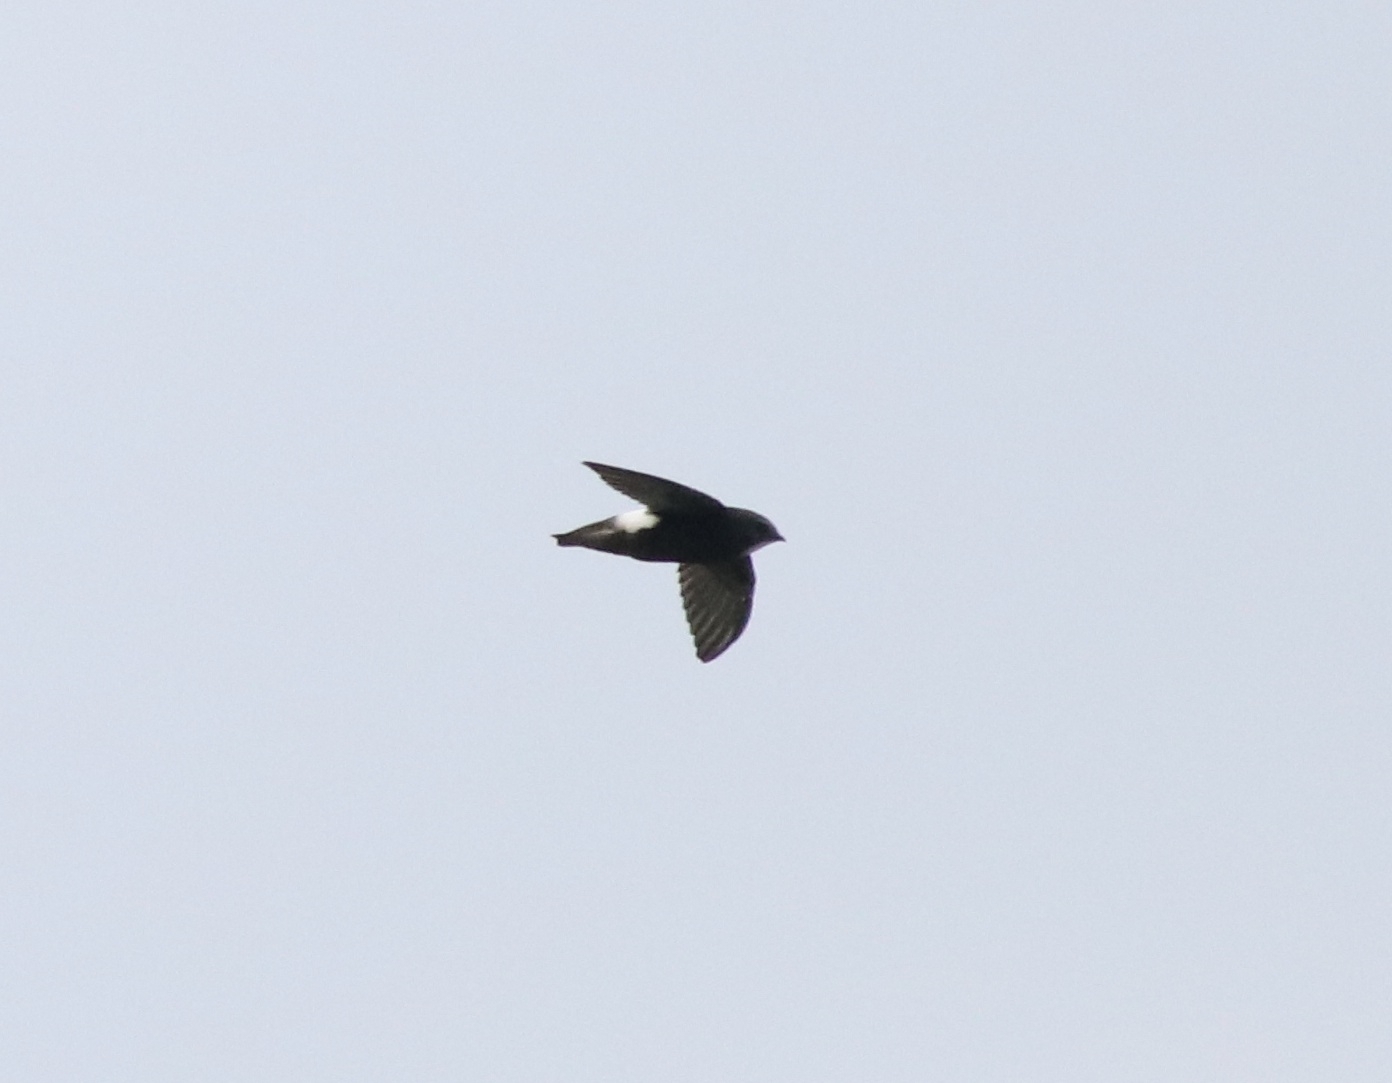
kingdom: Animalia
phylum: Chordata
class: Aves
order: Apodiformes
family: Apodidae
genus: Apus
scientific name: Apus affinis
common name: Little swift
